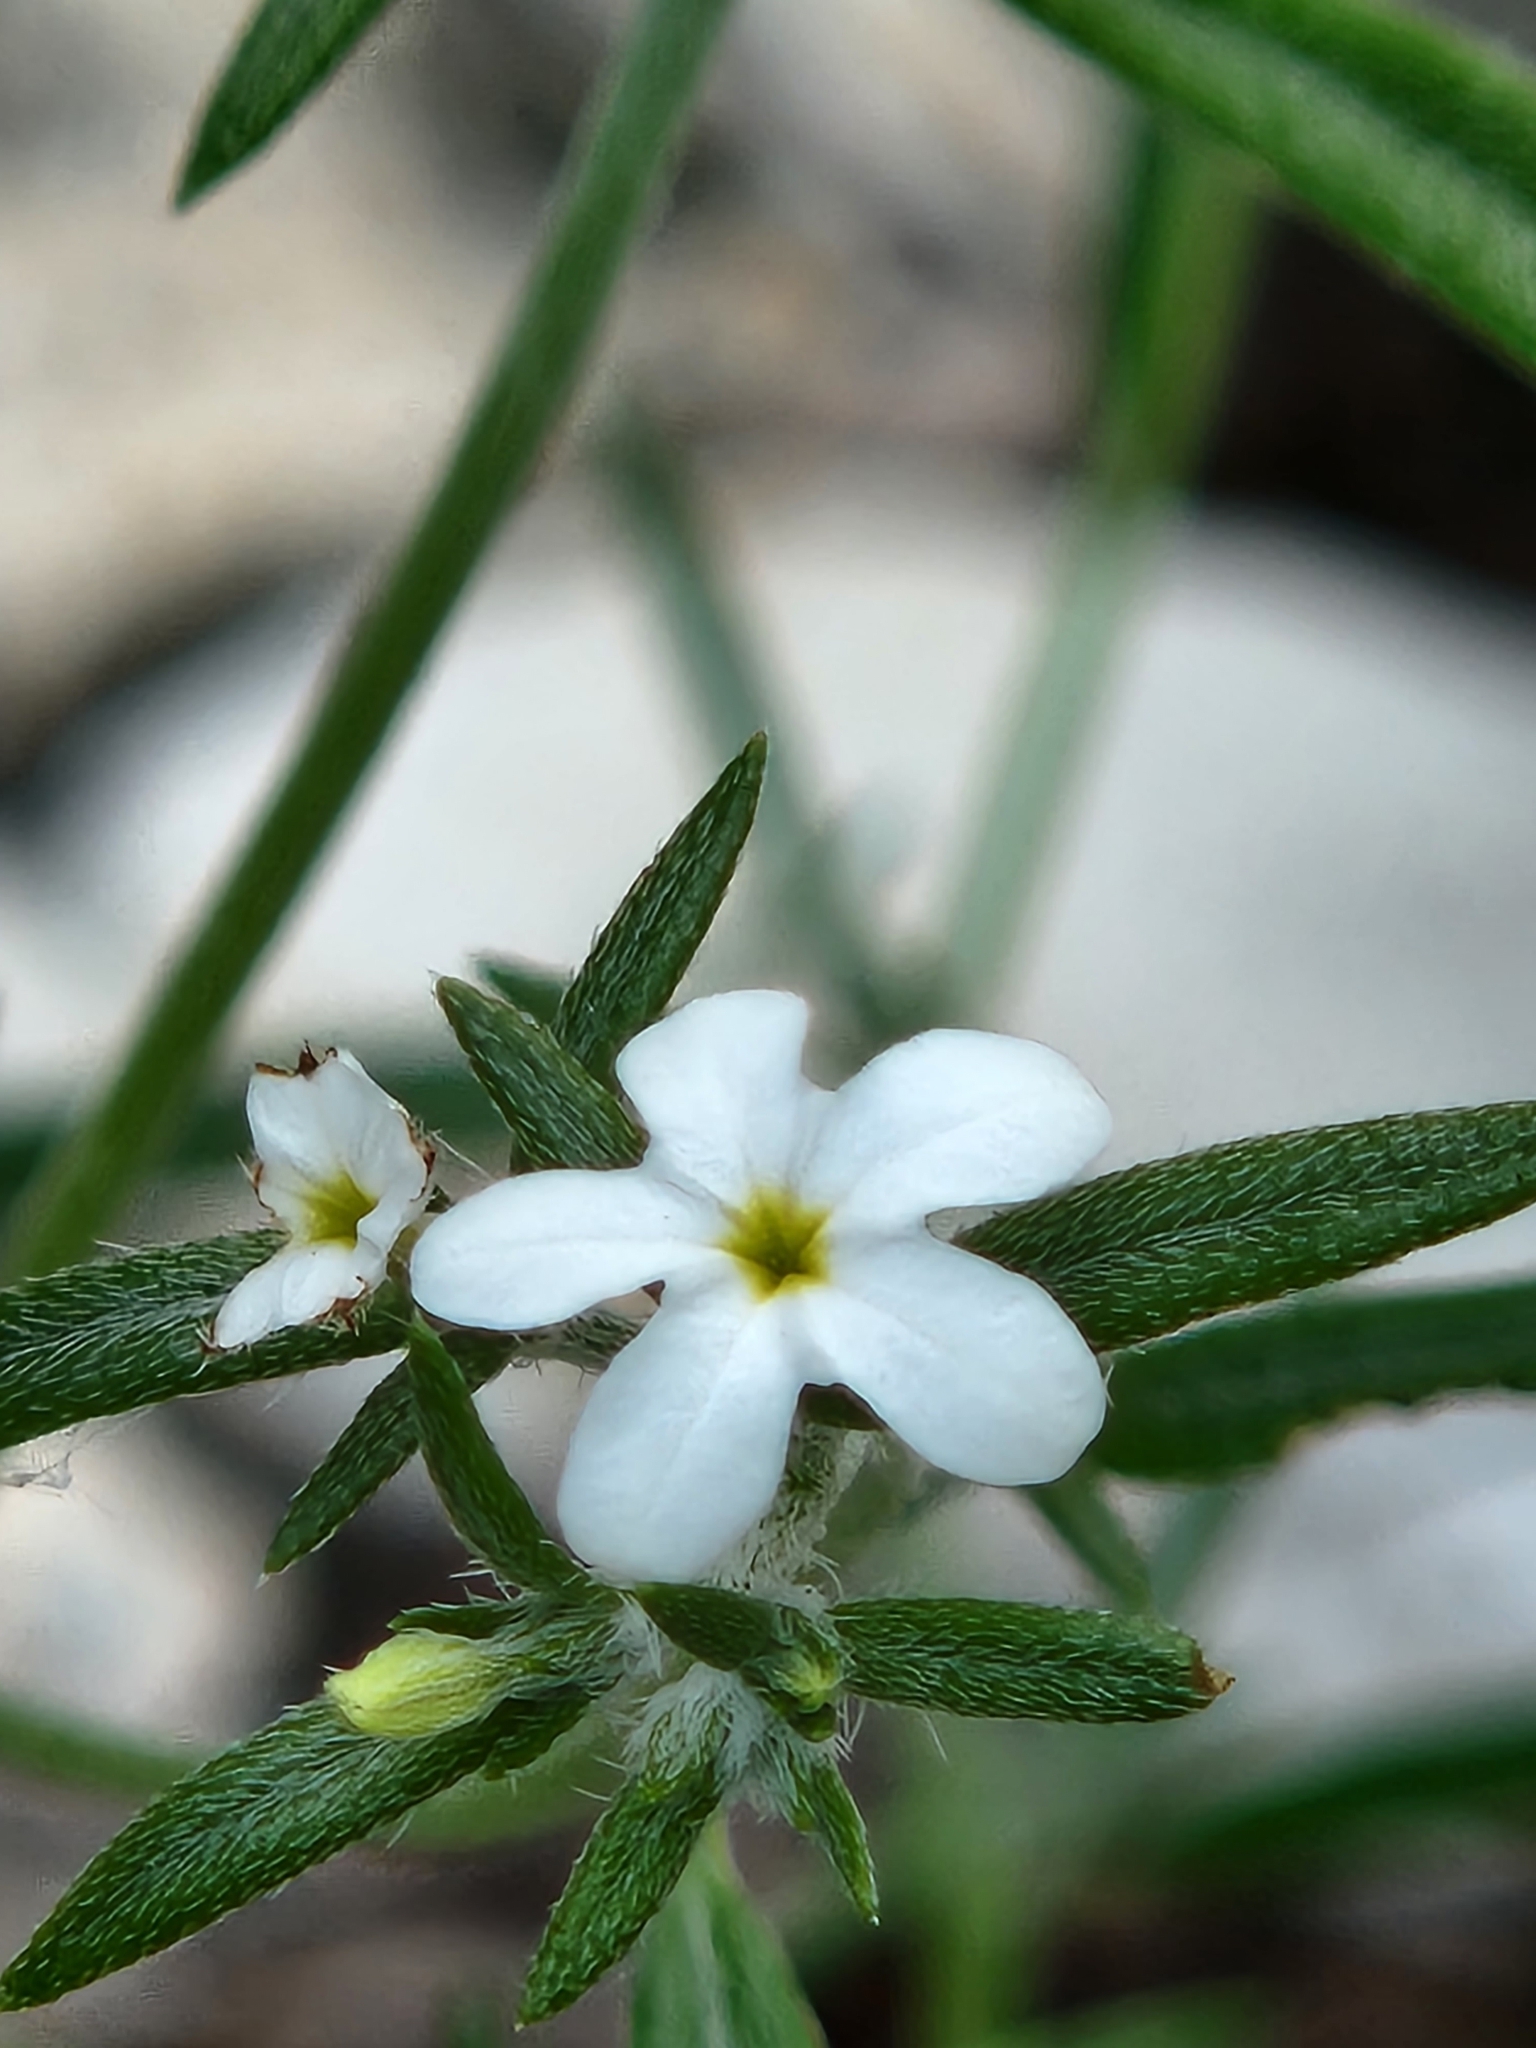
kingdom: Plantae
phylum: Tracheophyta
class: Magnoliopsida
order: Boraginales
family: Heliotropiaceae
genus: Euploca
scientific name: Euploca tenella
